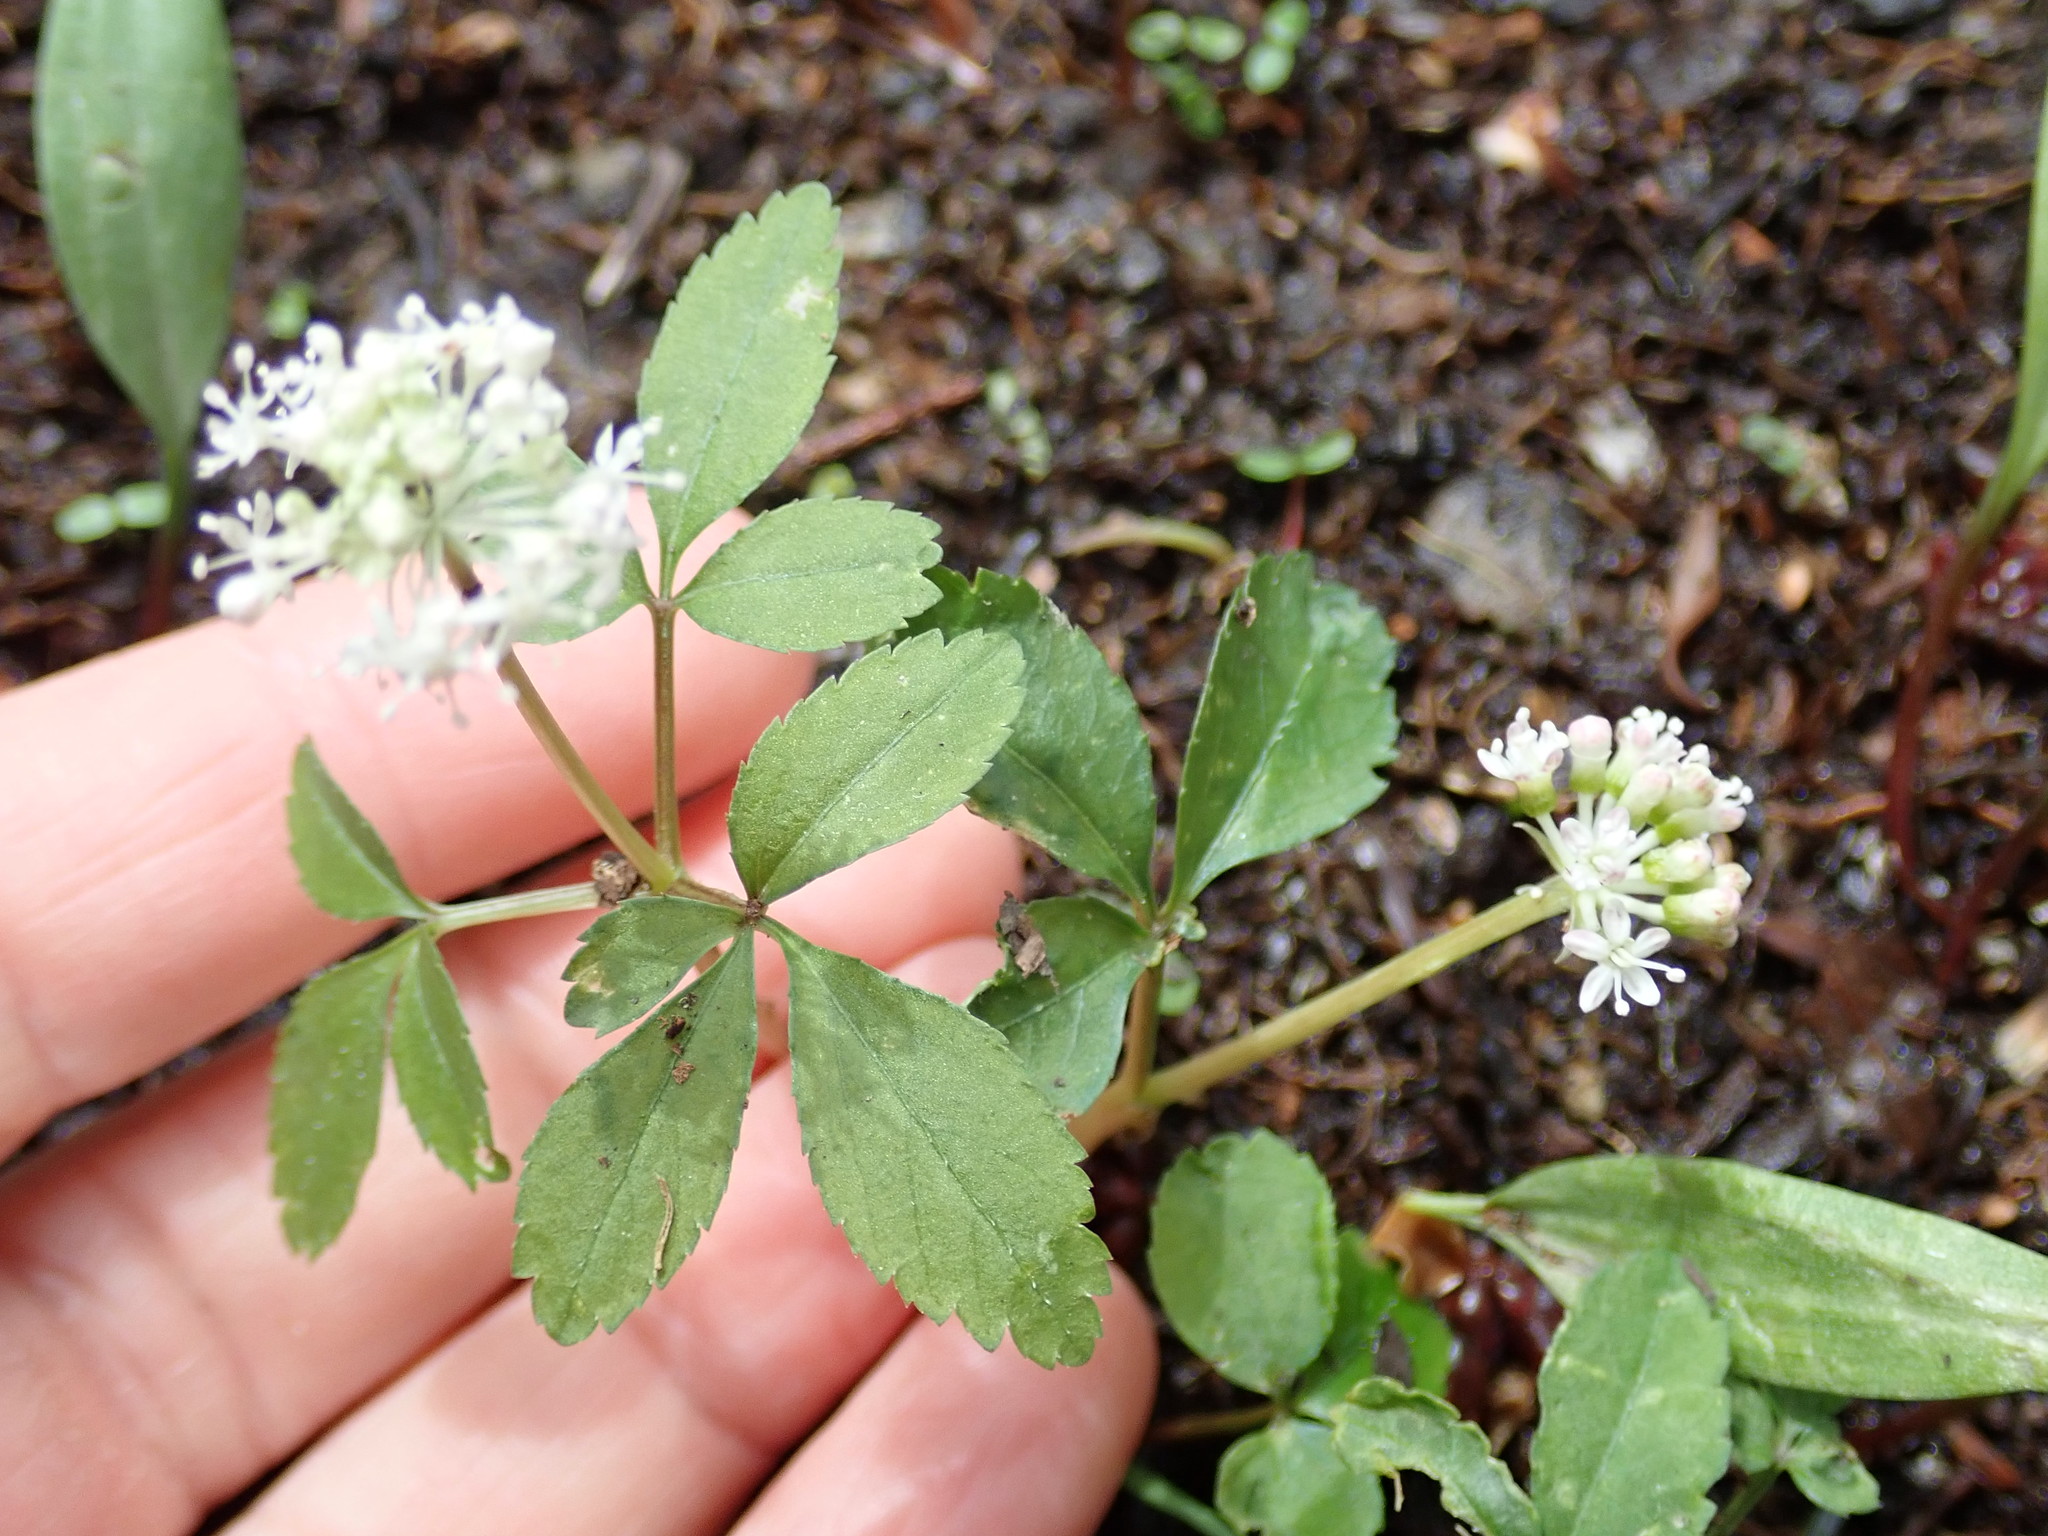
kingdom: Plantae
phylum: Tracheophyta
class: Magnoliopsida
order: Apiales
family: Araliaceae
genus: Panax
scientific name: Panax trifolius
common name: Dwarf ginseng
